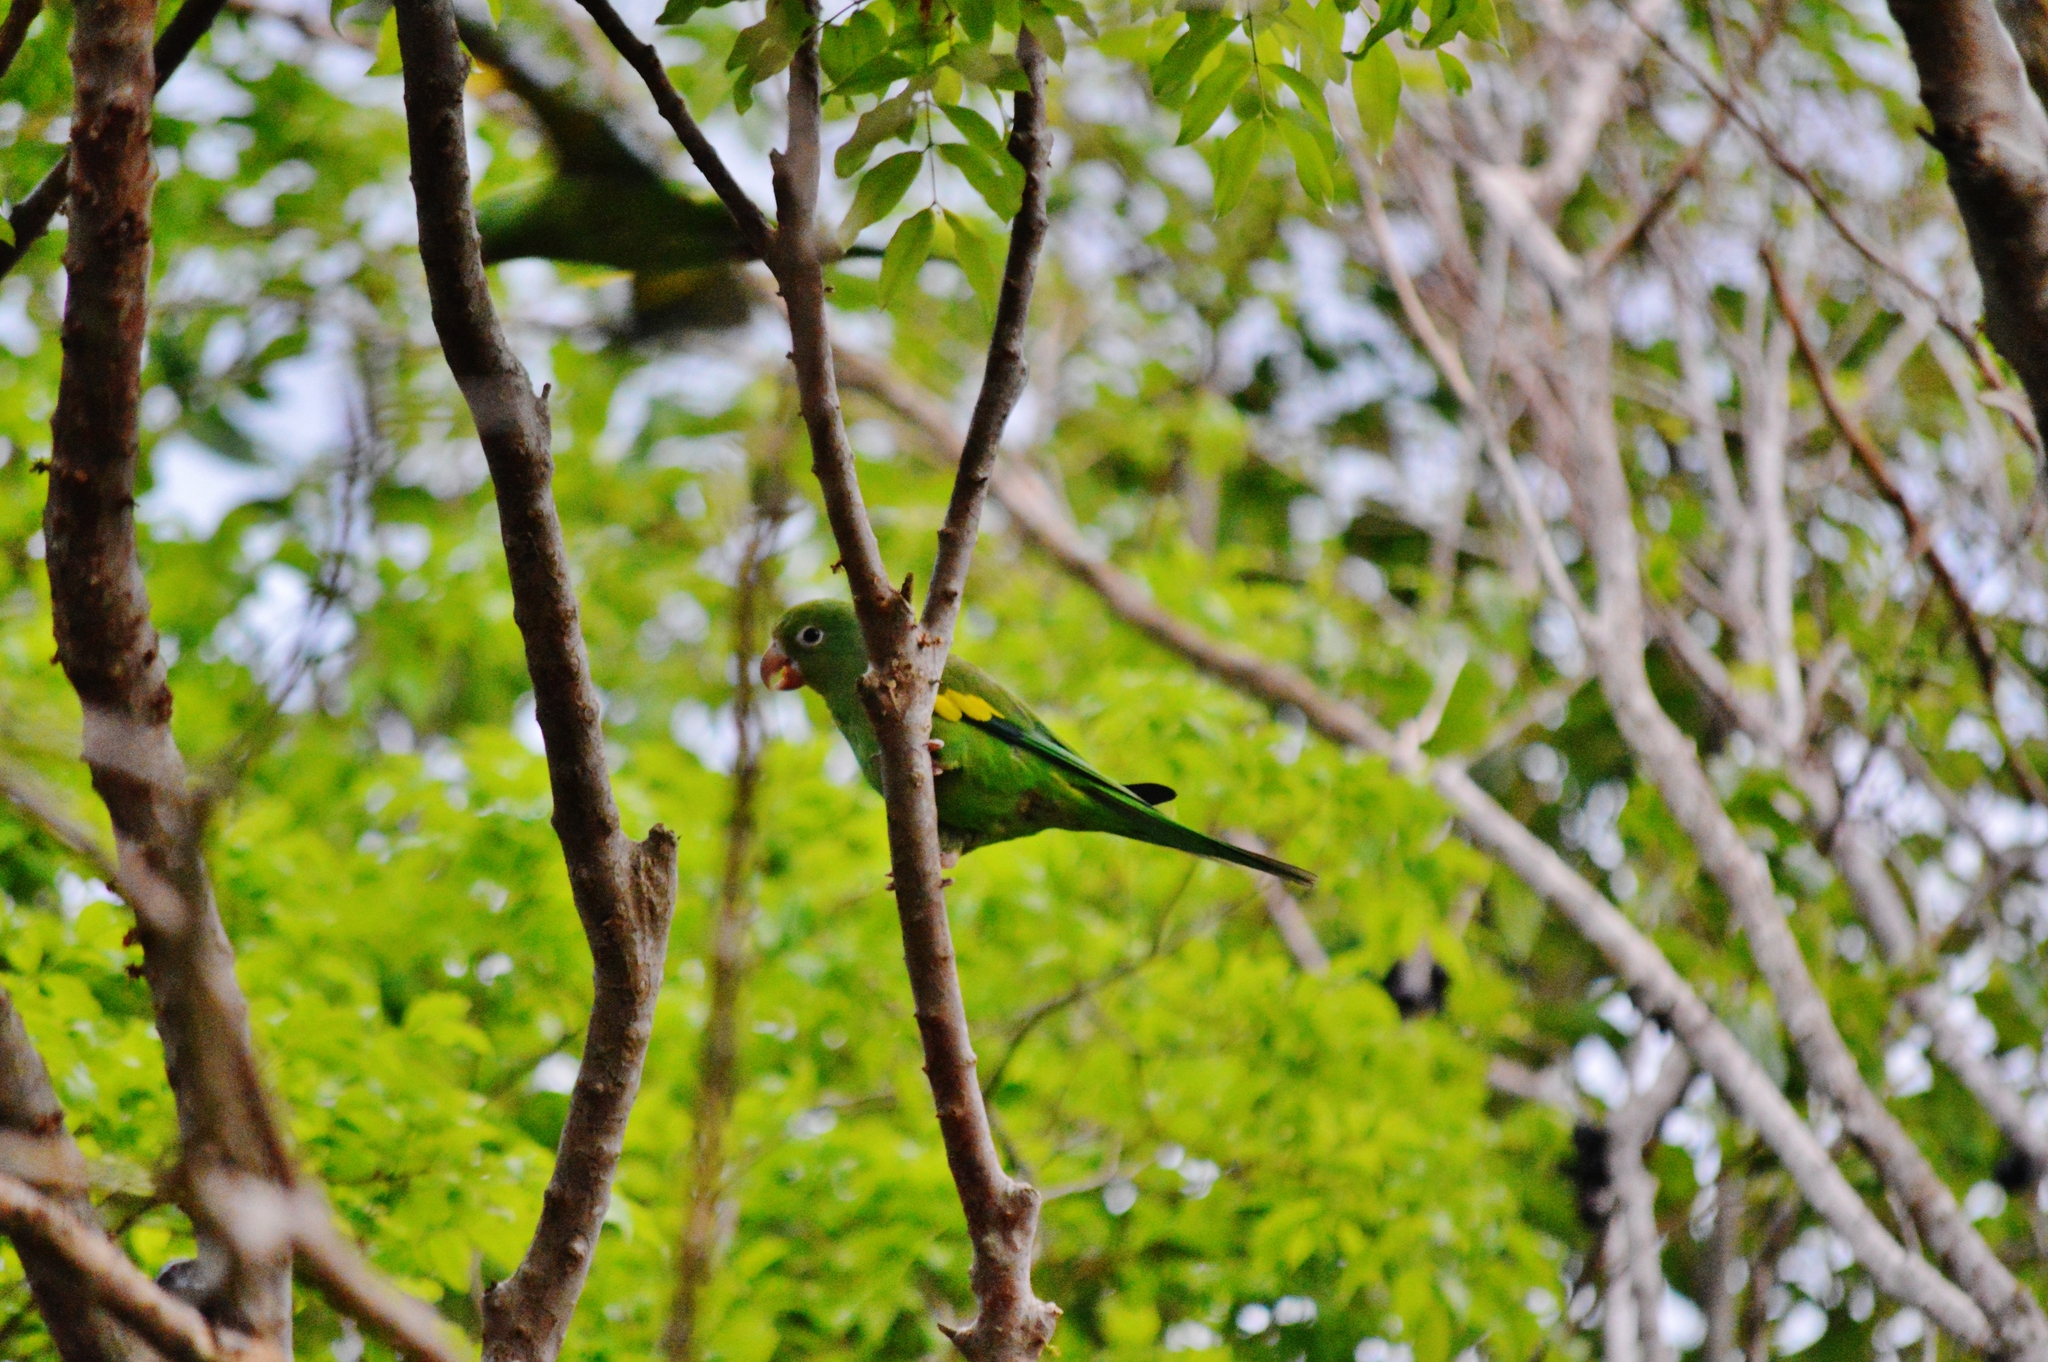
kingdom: Animalia
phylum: Chordata
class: Aves
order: Psittaciformes
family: Psittacidae
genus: Brotogeris
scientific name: Brotogeris chiriri
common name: Yellow-chevroned parakeet
